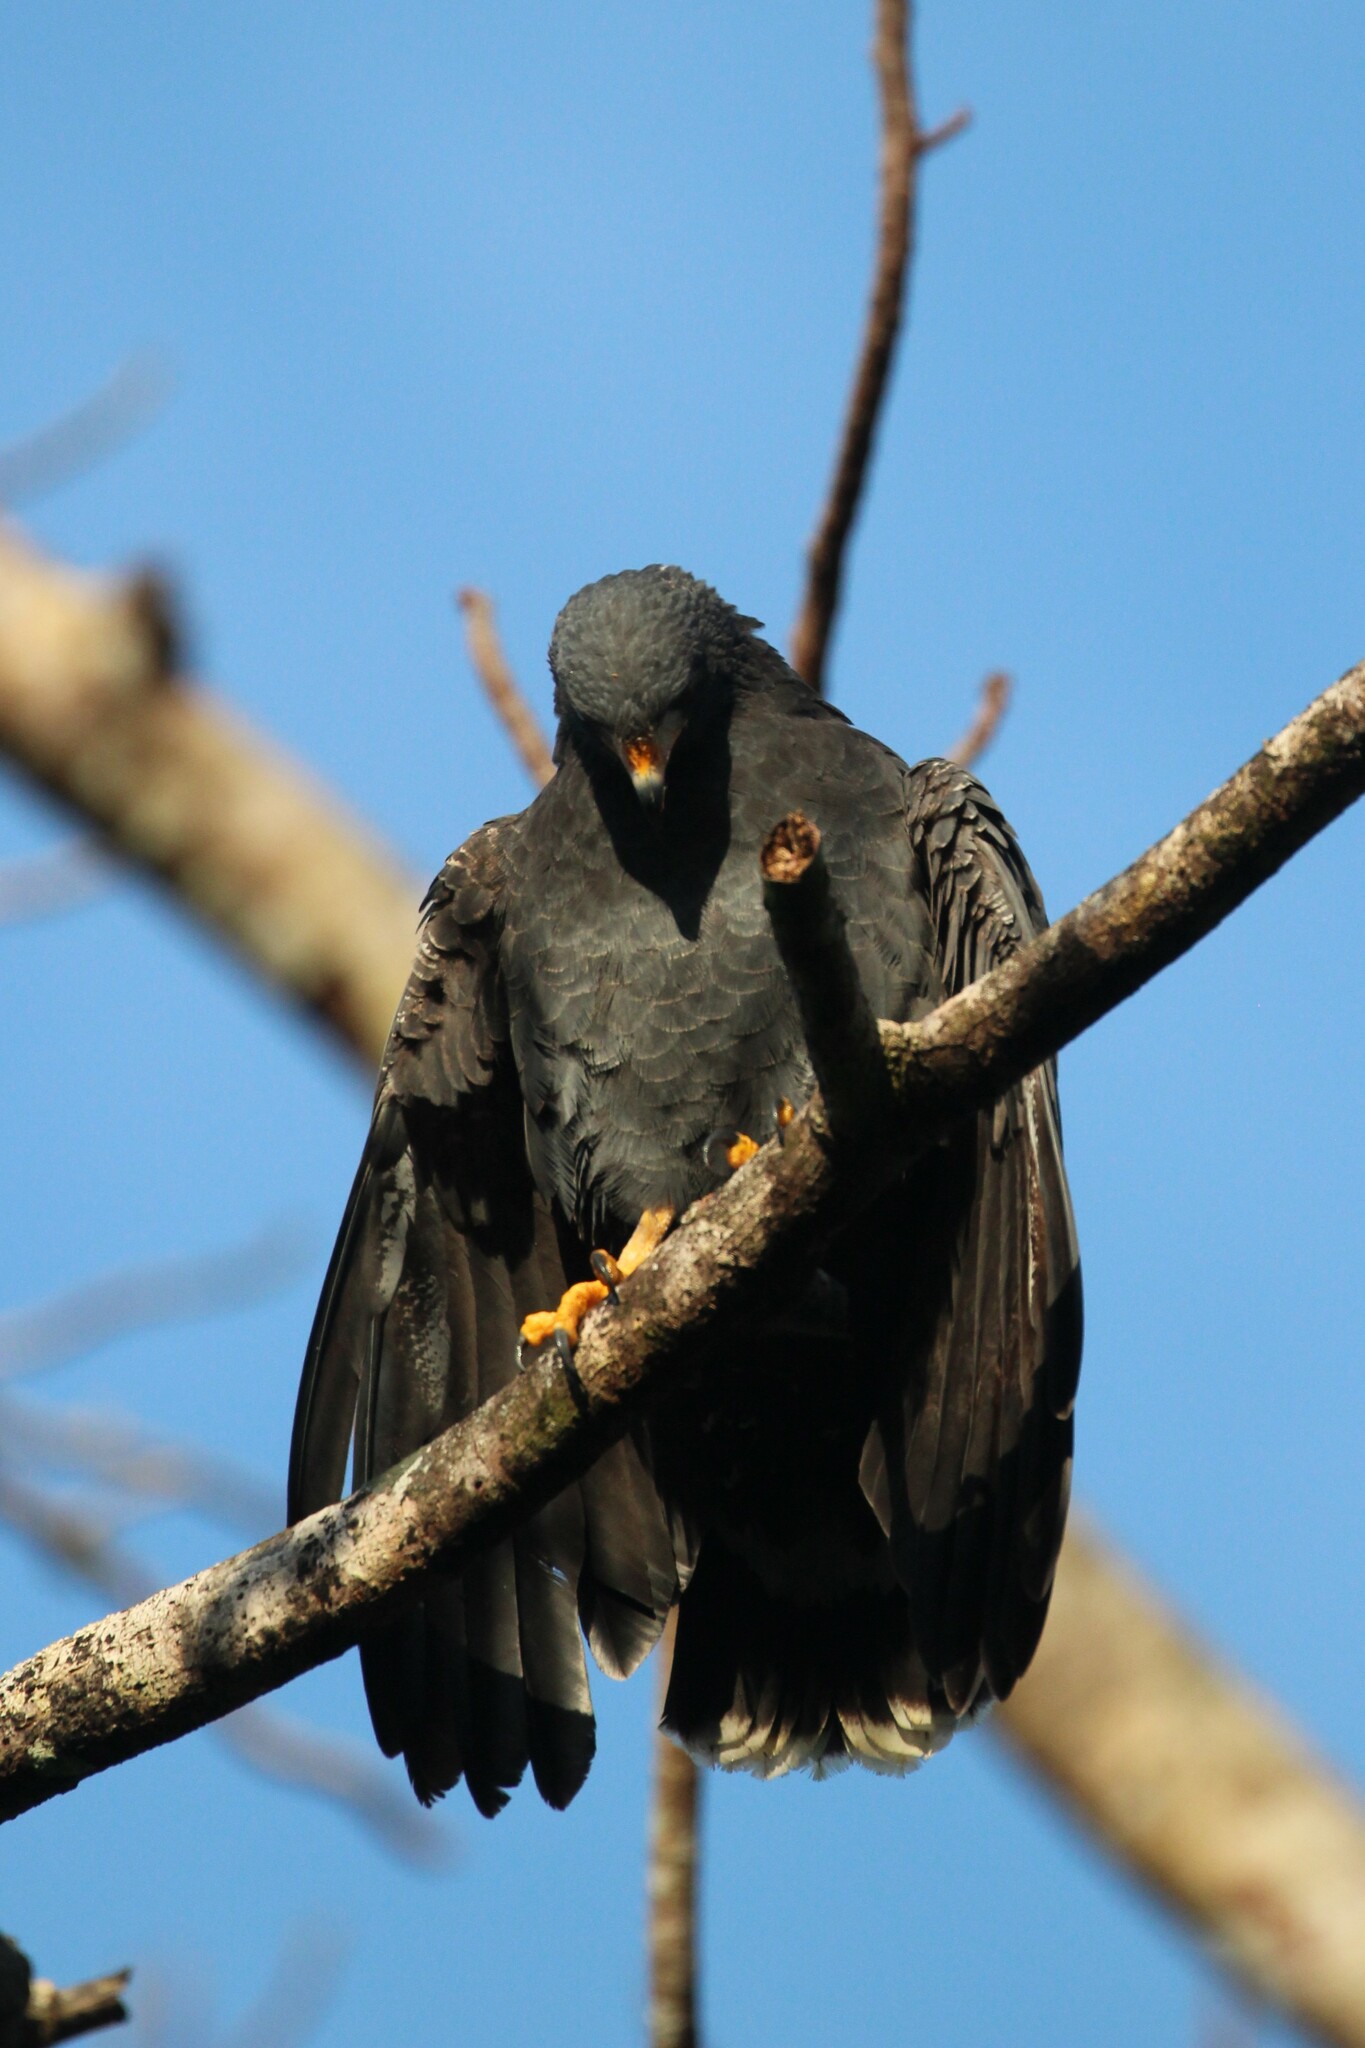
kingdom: Animalia
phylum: Chordata
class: Aves
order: Accipitriformes
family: Accipitridae
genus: Buteogallus
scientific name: Buteogallus anthracinus
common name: Common black hawk
